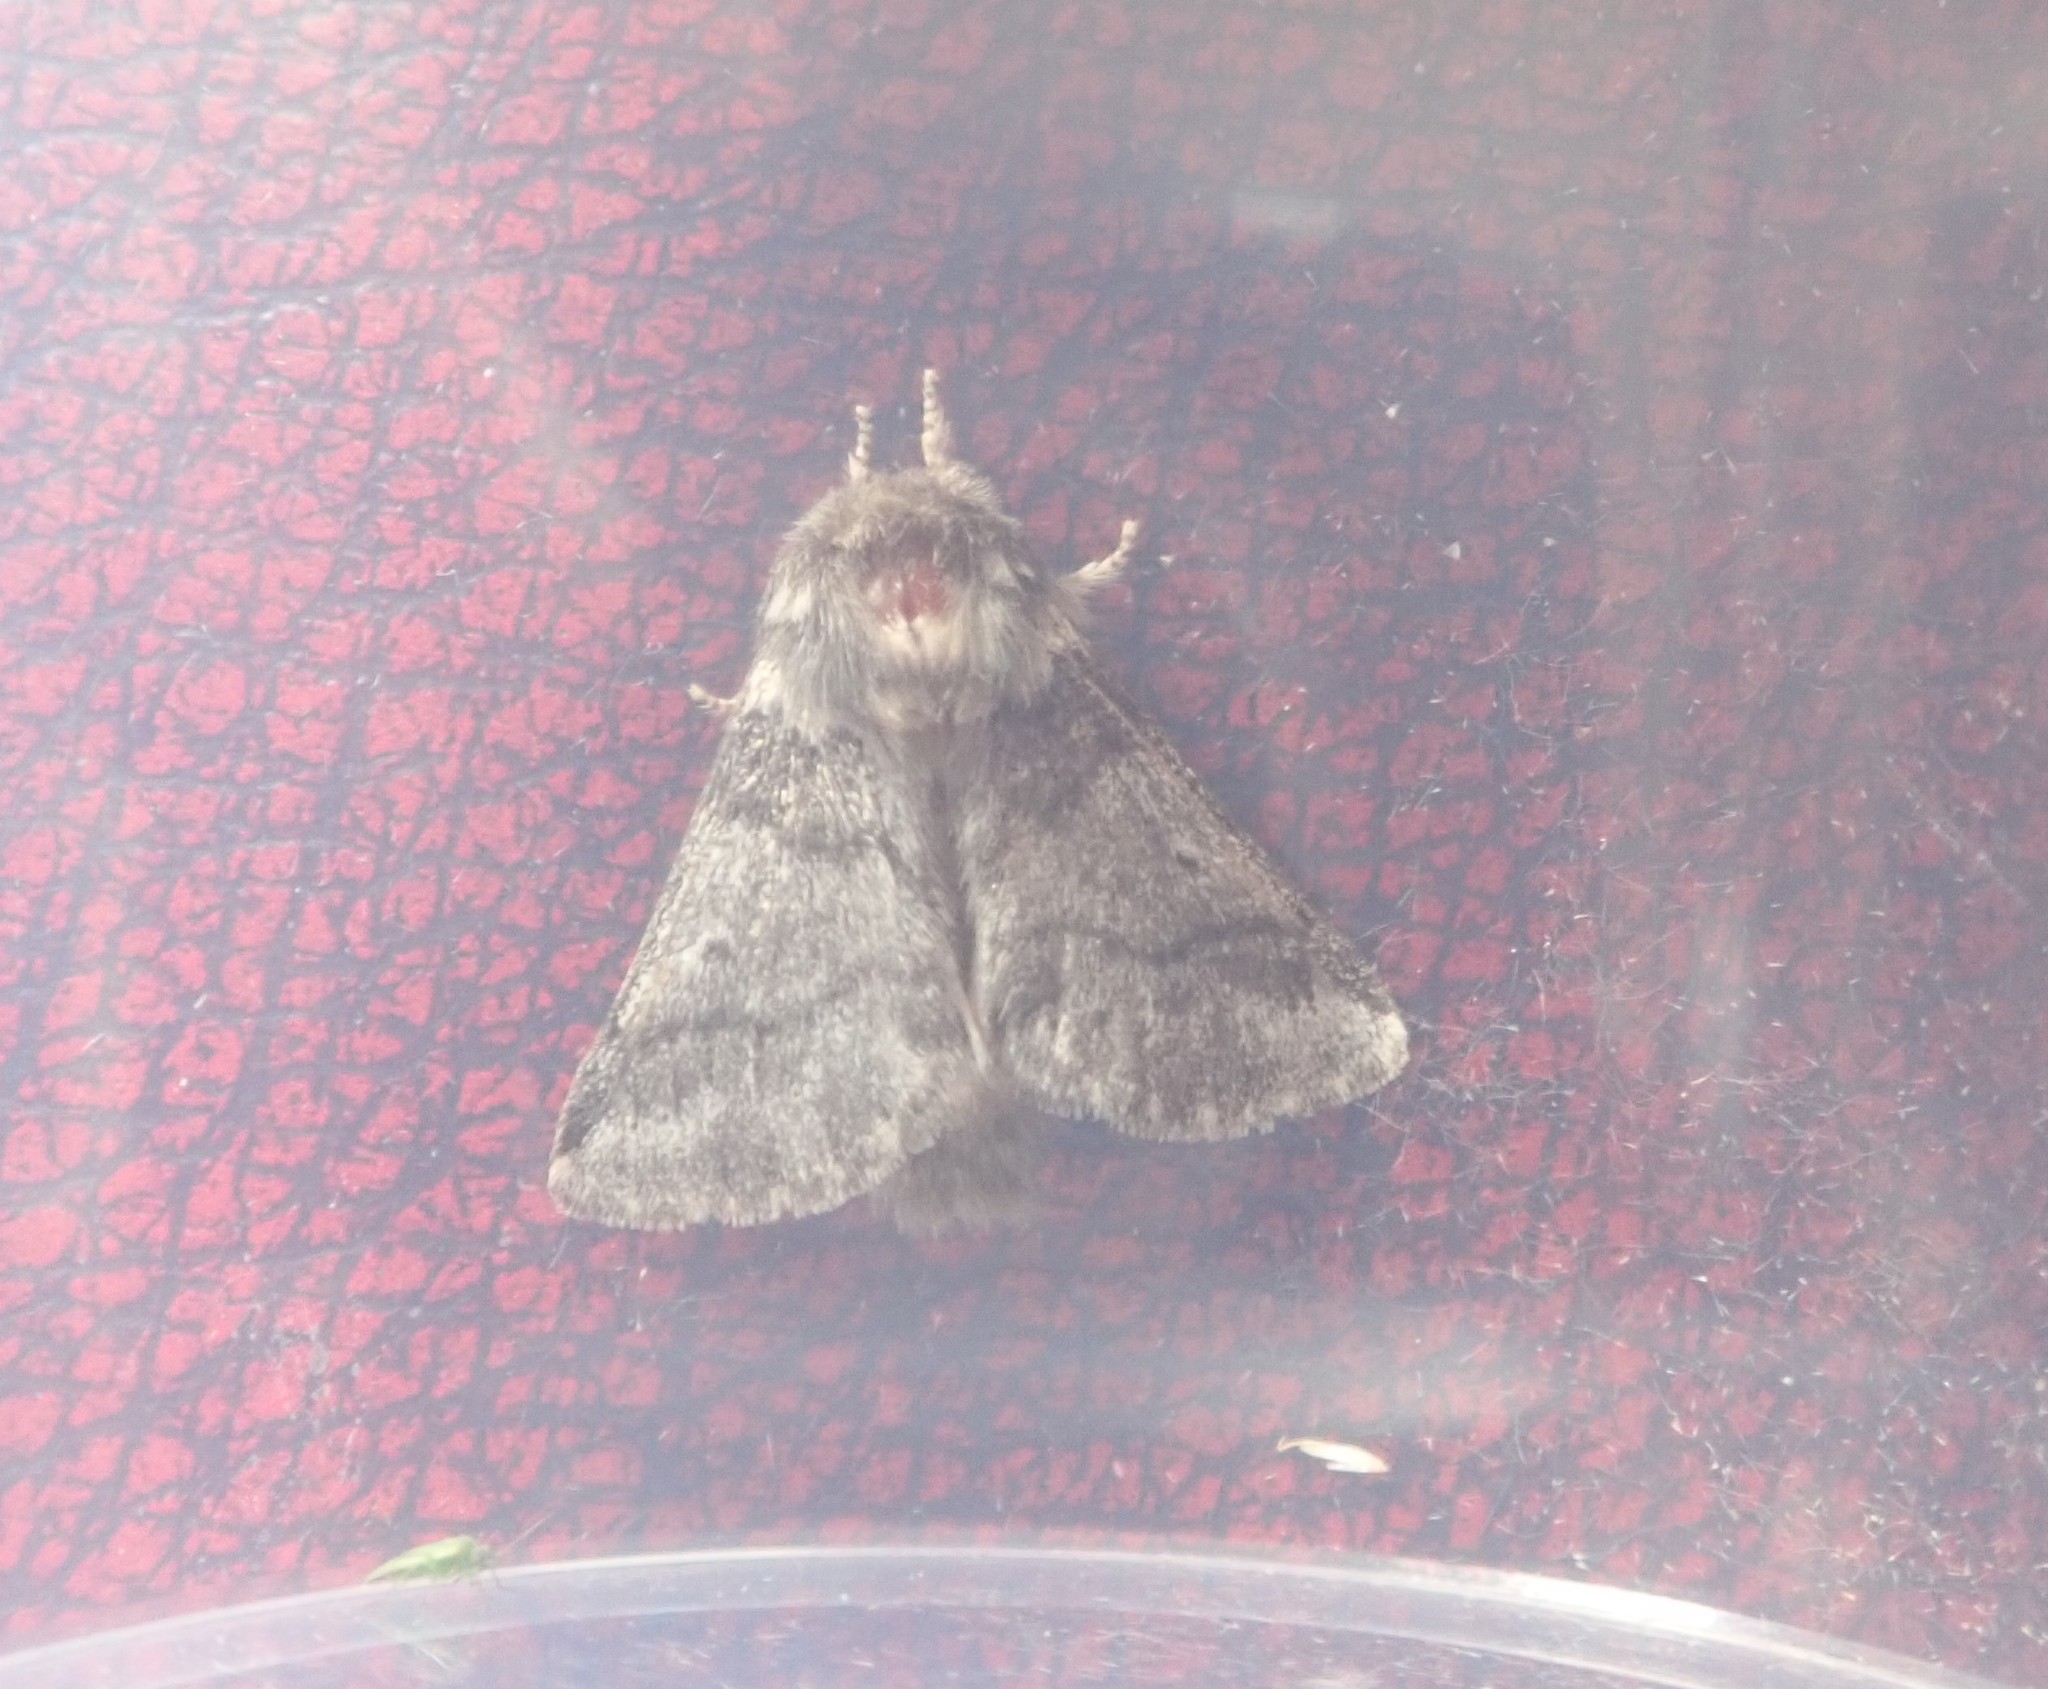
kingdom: Animalia
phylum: Arthropoda
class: Insecta
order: Lepidoptera
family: Notodontidae
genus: Thaumetopoea
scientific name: Thaumetopoea processionea
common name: Oak processionea
